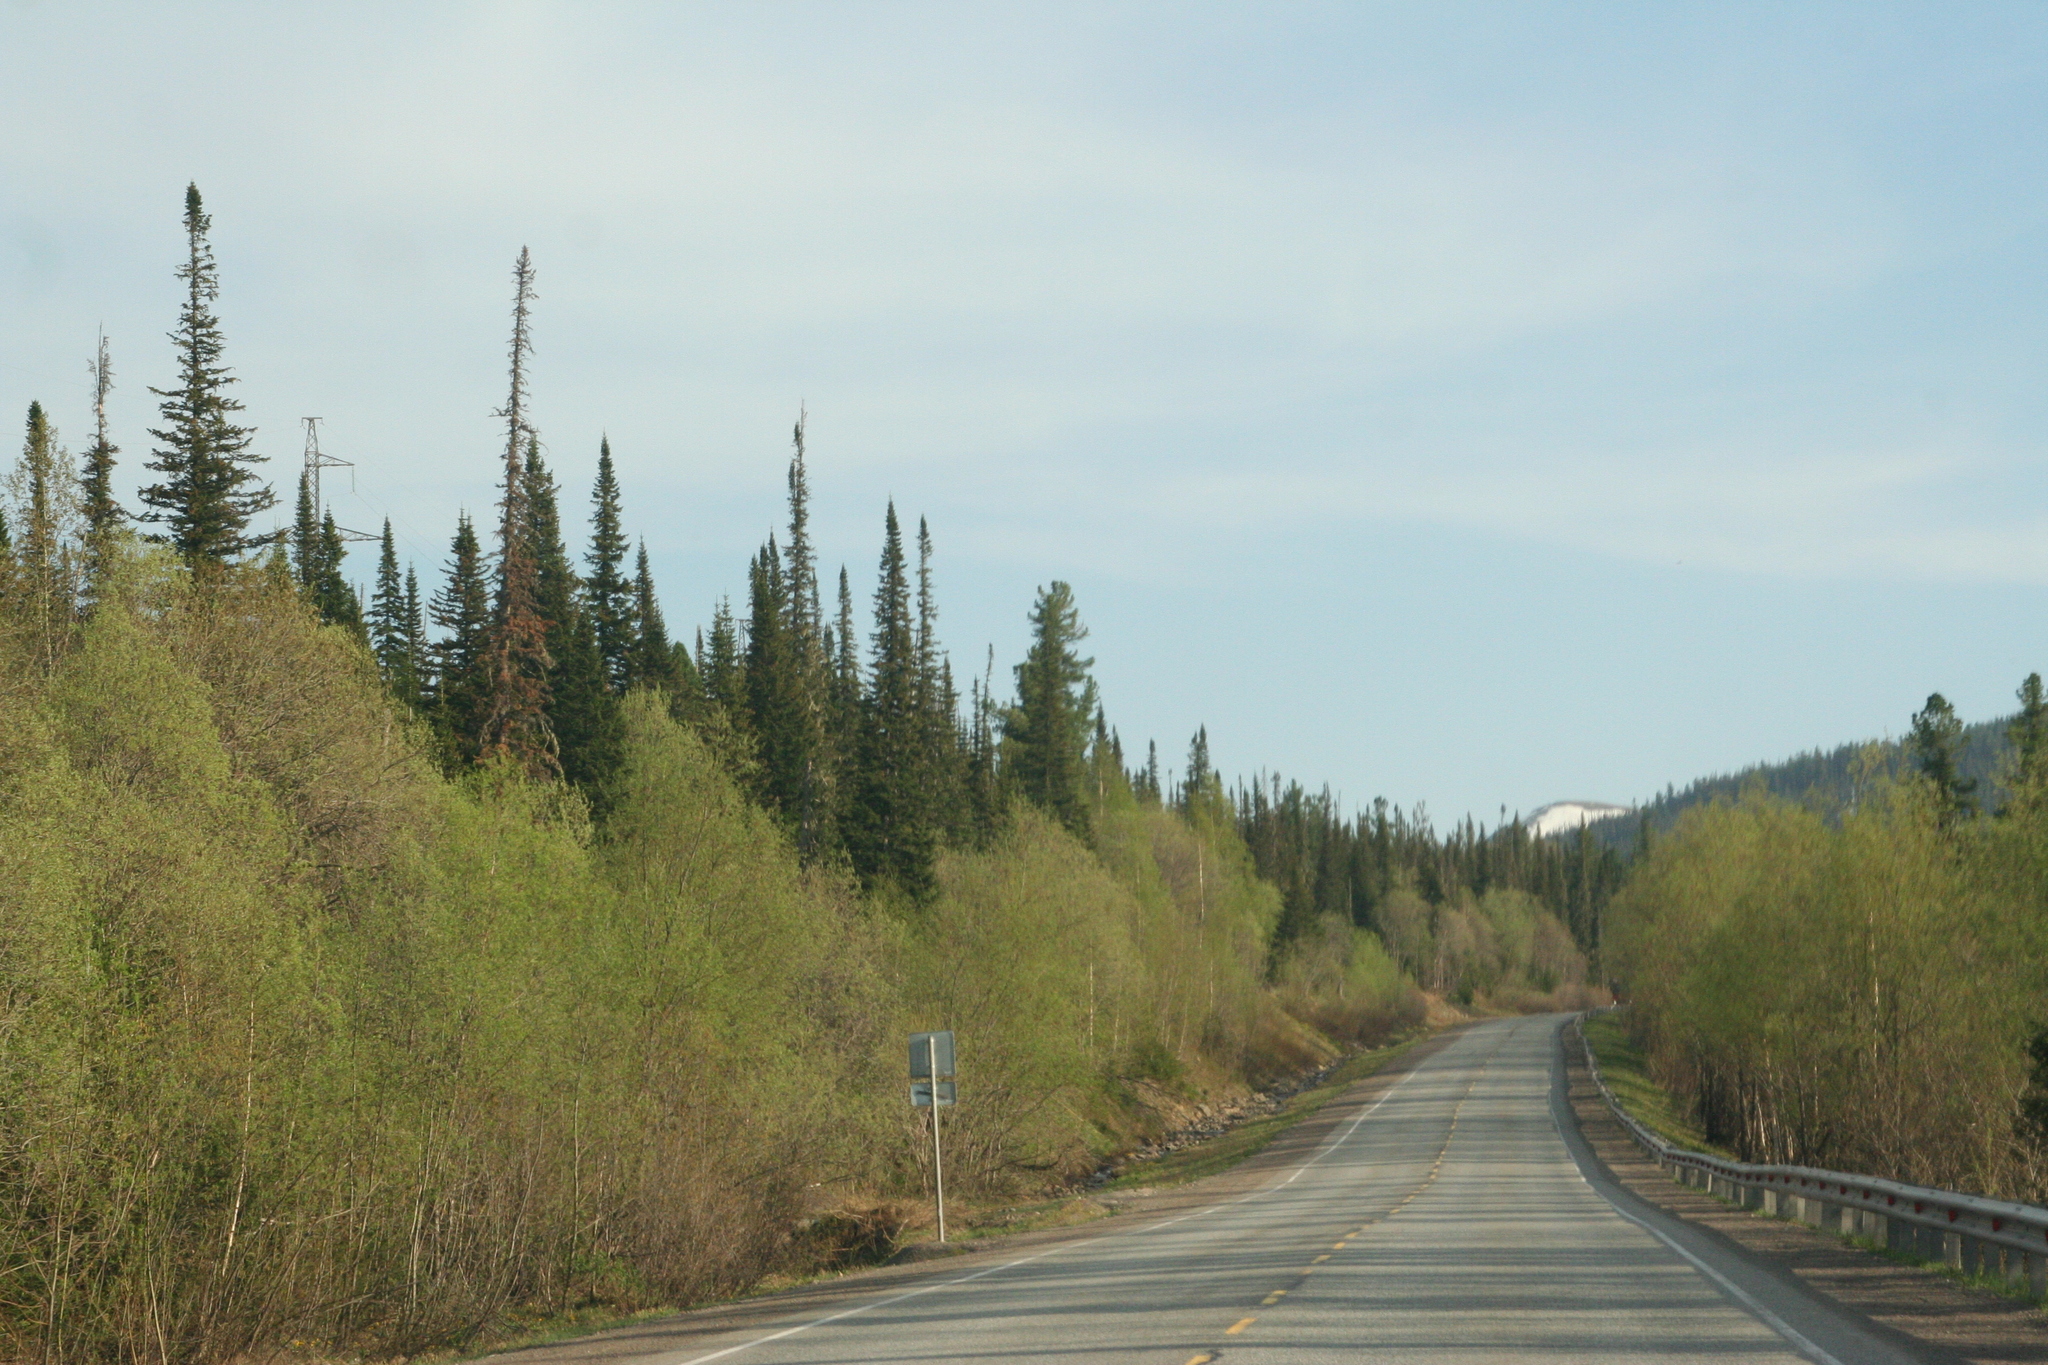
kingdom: Plantae
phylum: Tracheophyta
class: Pinopsida
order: Pinales
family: Pinaceae
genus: Abies
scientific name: Abies sibirica
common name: Siberian fir
